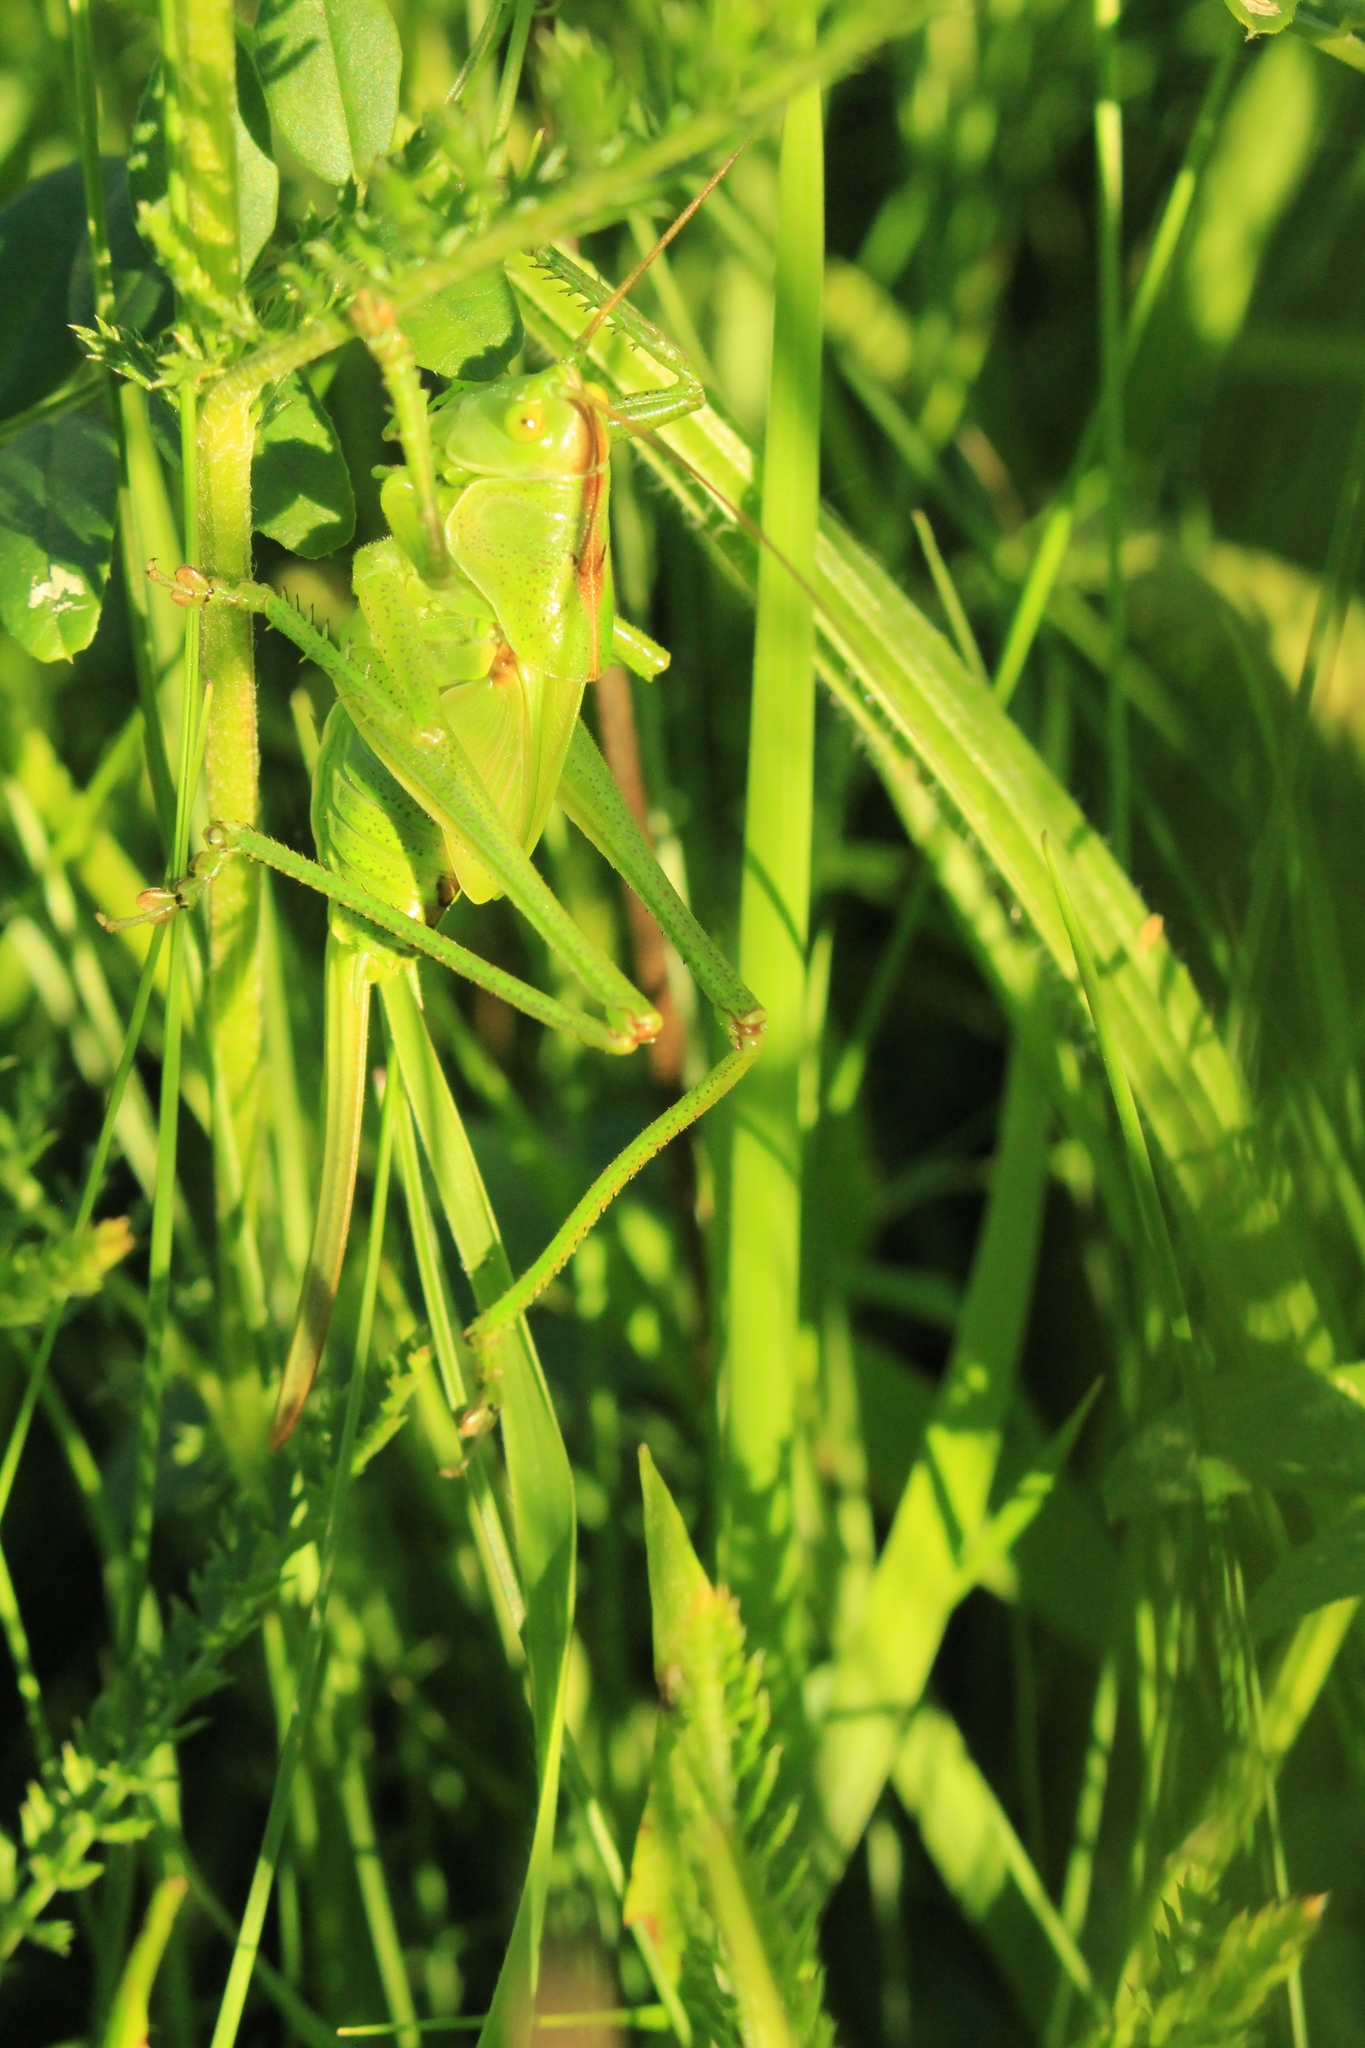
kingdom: Animalia
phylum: Arthropoda
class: Insecta
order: Orthoptera
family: Tettigoniidae
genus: Tettigonia
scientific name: Tettigonia viridissima
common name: Great green bush-cricket
